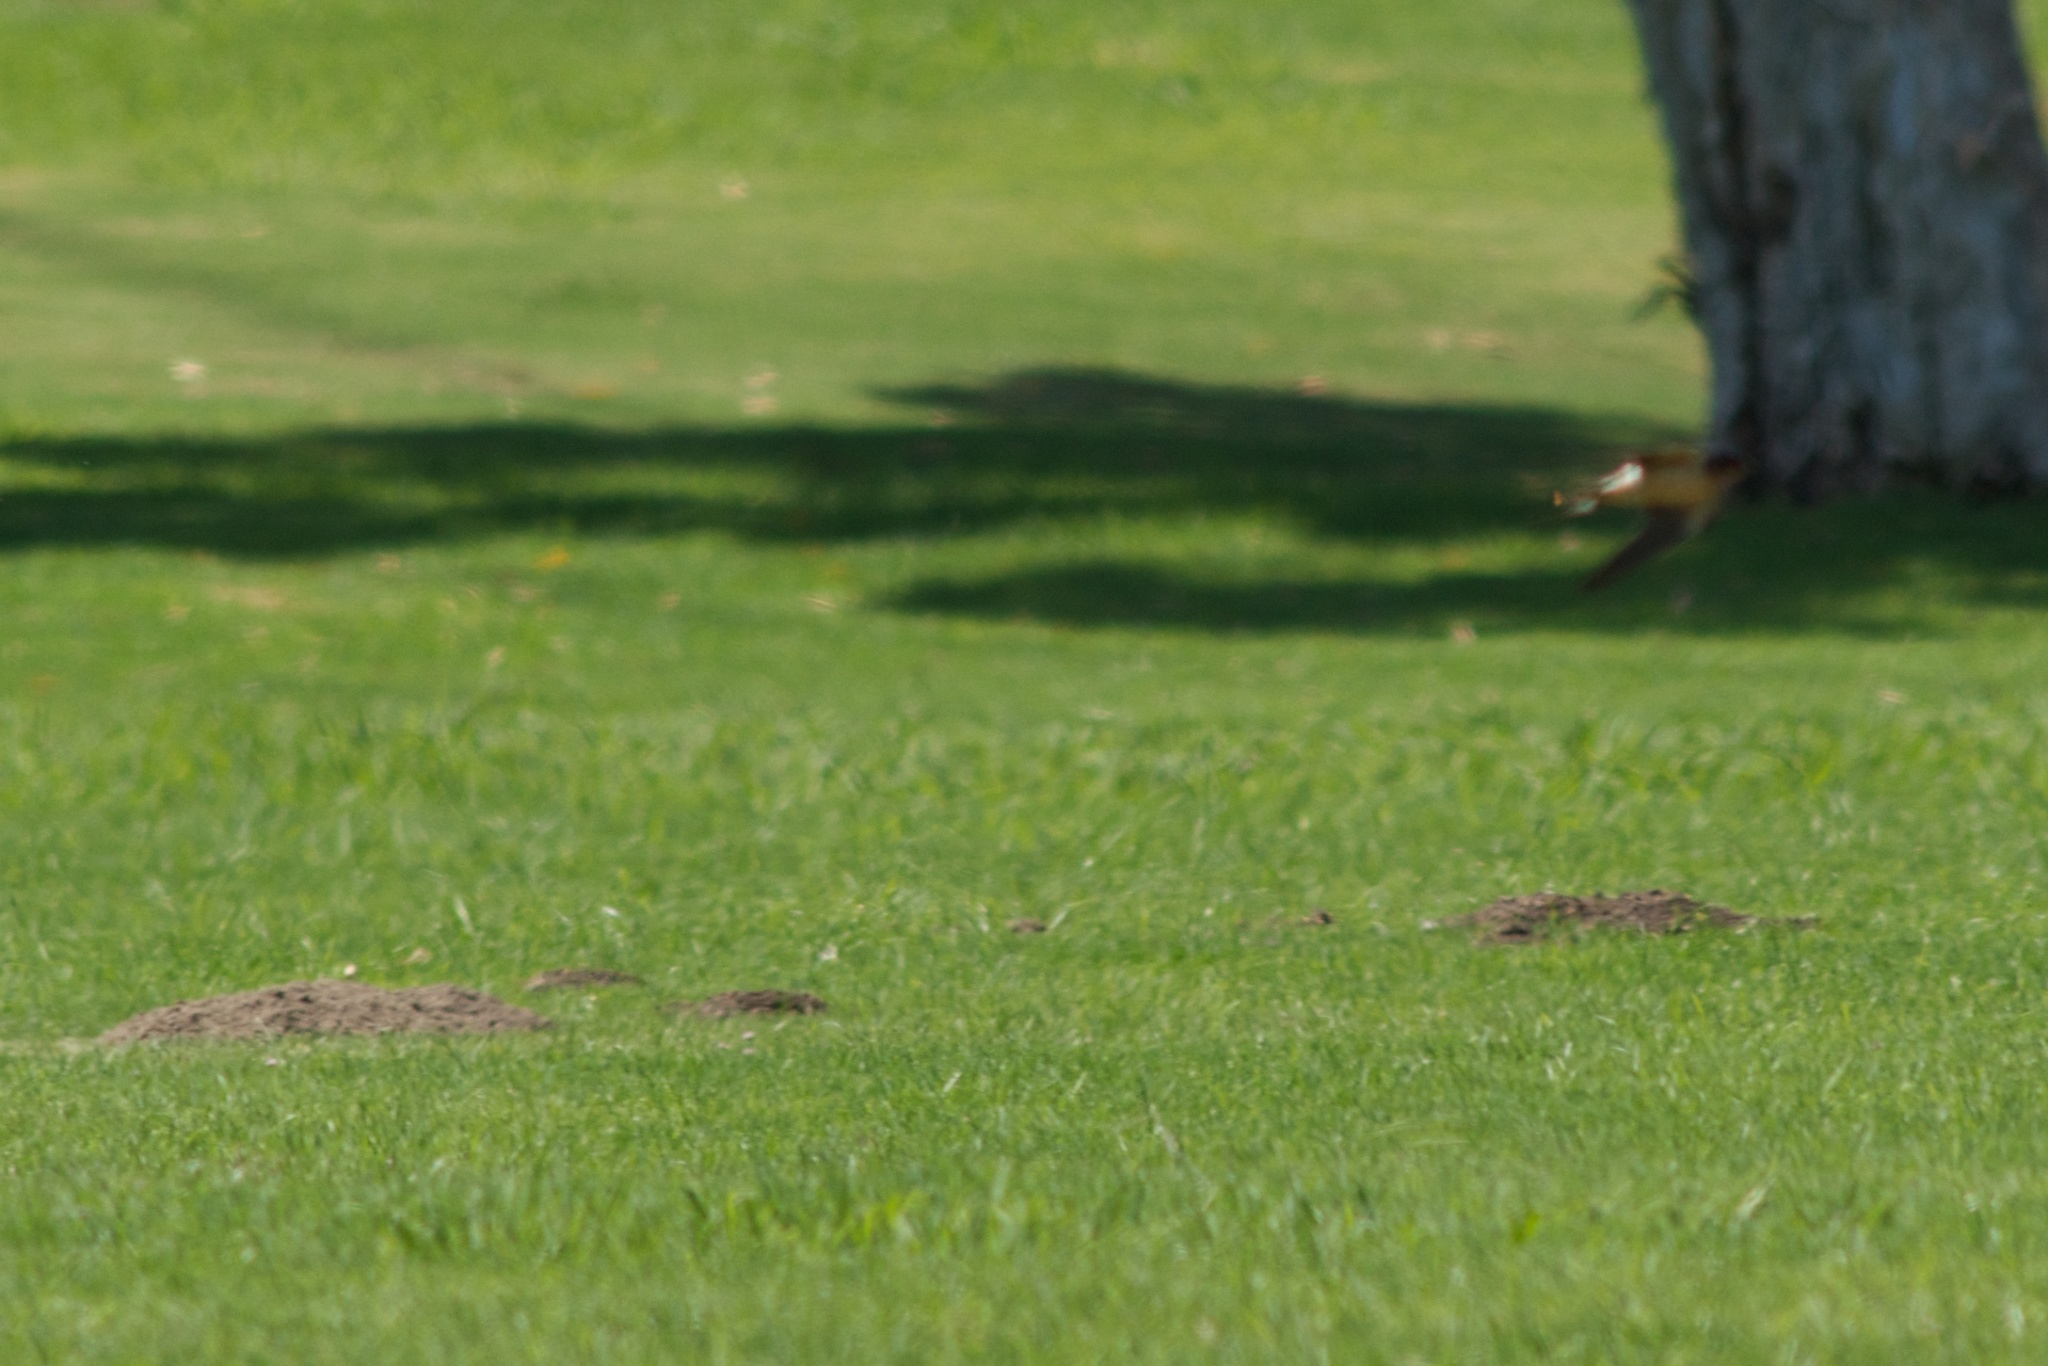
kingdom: Animalia
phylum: Chordata
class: Aves
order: Passeriformes
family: Hirundinidae
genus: Hirundo
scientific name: Hirundo rustica
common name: Barn swallow
